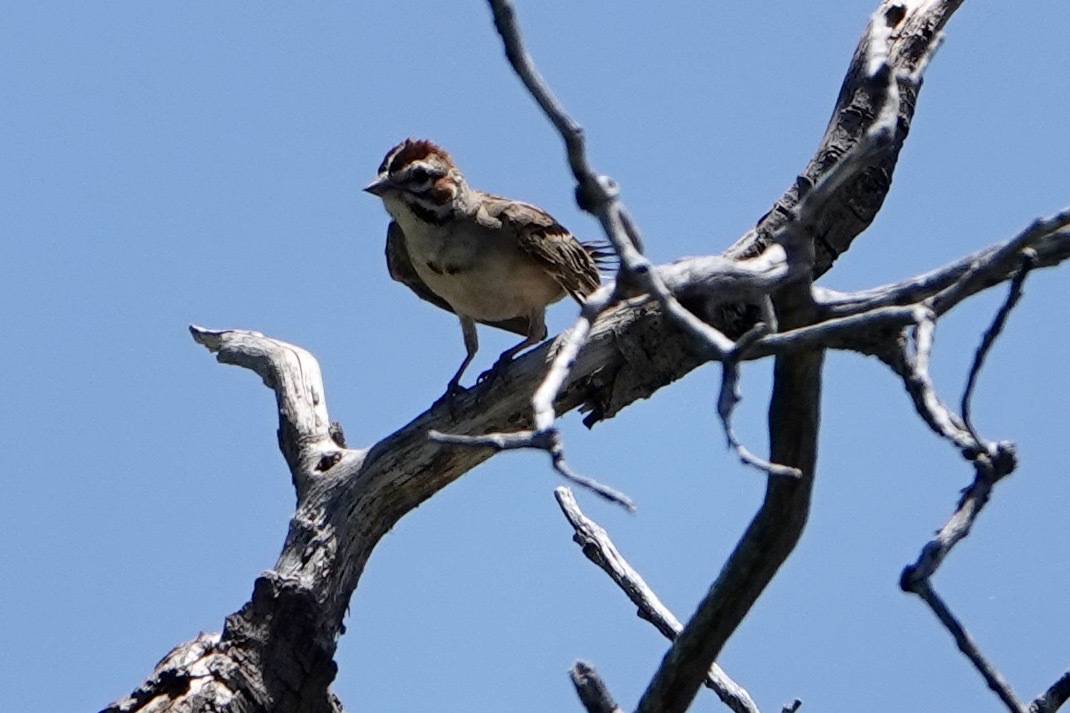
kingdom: Animalia
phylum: Chordata
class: Aves
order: Passeriformes
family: Passerellidae
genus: Chondestes
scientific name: Chondestes grammacus
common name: Lark sparrow
